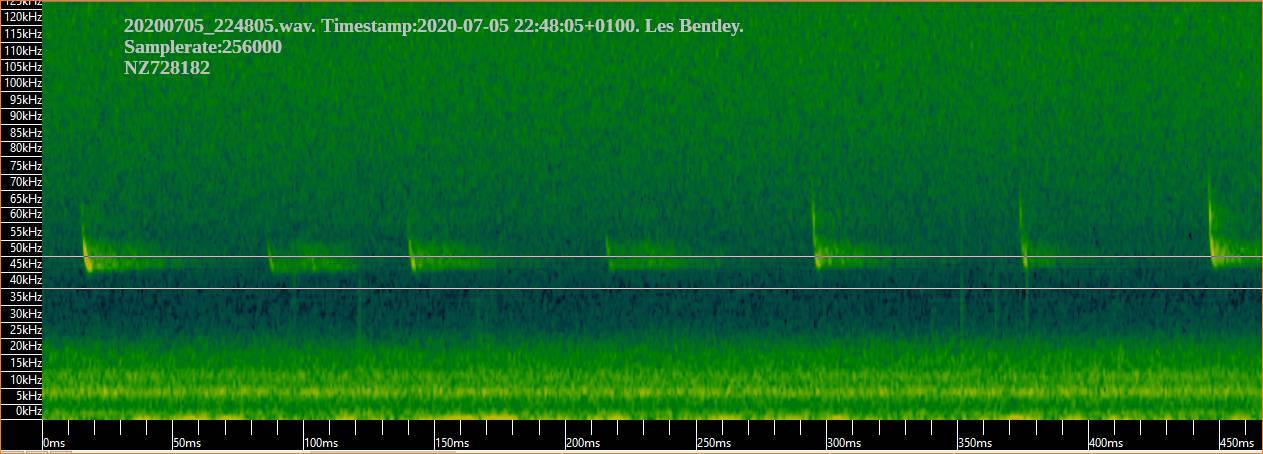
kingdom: Animalia
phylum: Chordata
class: Mammalia
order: Chiroptera
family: Vespertilionidae
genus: Pipistrellus
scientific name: Pipistrellus pipistrellus
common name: Common pipistrelle
